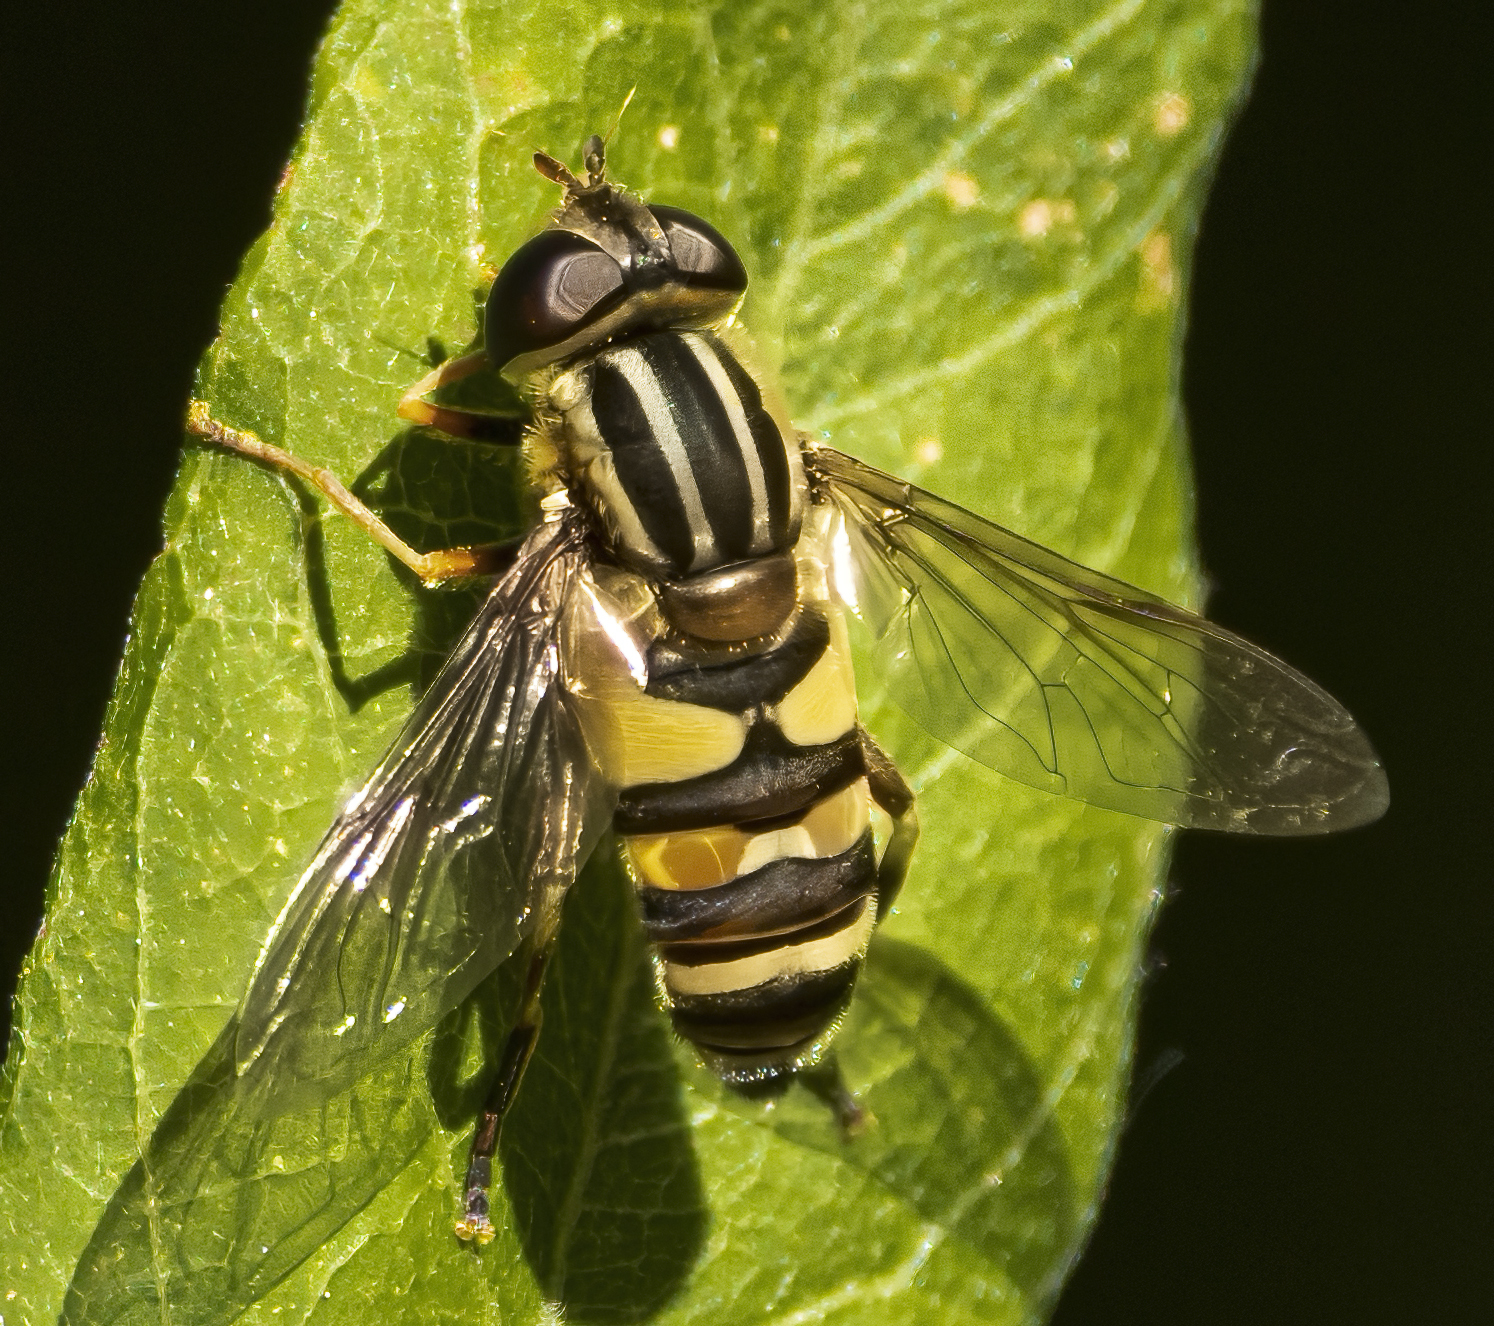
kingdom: Animalia
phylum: Arthropoda
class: Insecta
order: Diptera
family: Syrphidae
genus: Helophilus
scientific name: Helophilus fasciatus
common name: Narrow-headed marsh fly
